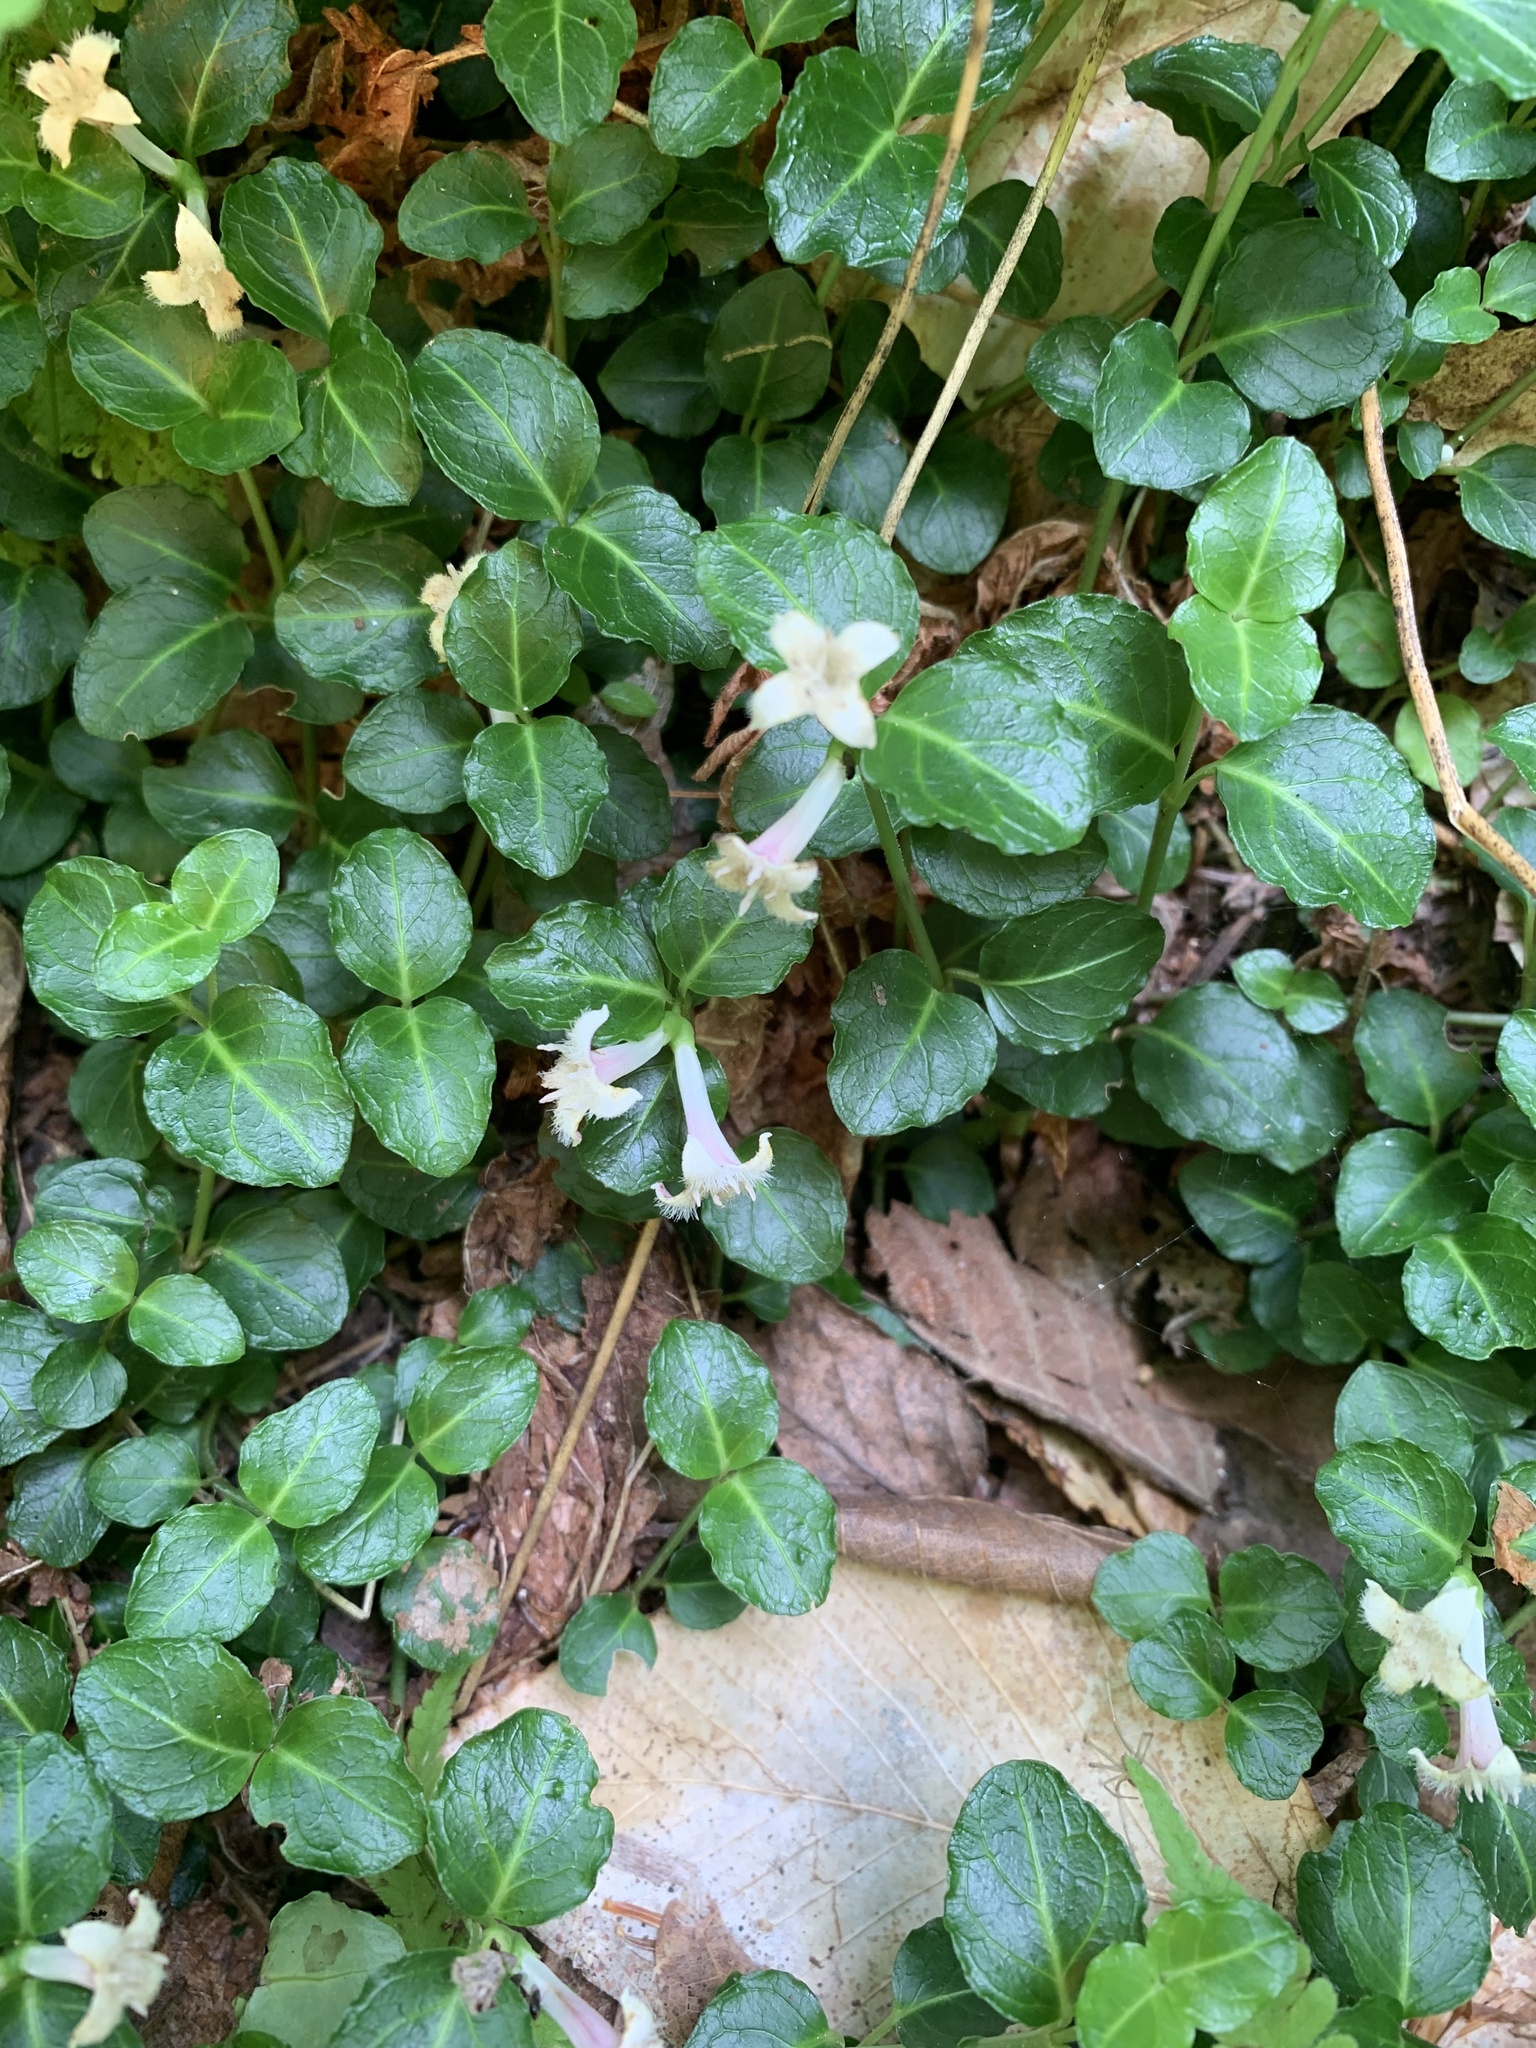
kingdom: Plantae
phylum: Tracheophyta
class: Magnoliopsida
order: Gentianales
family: Rubiaceae
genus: Mitchella
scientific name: Mitchella repens
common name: Partridge-berry
